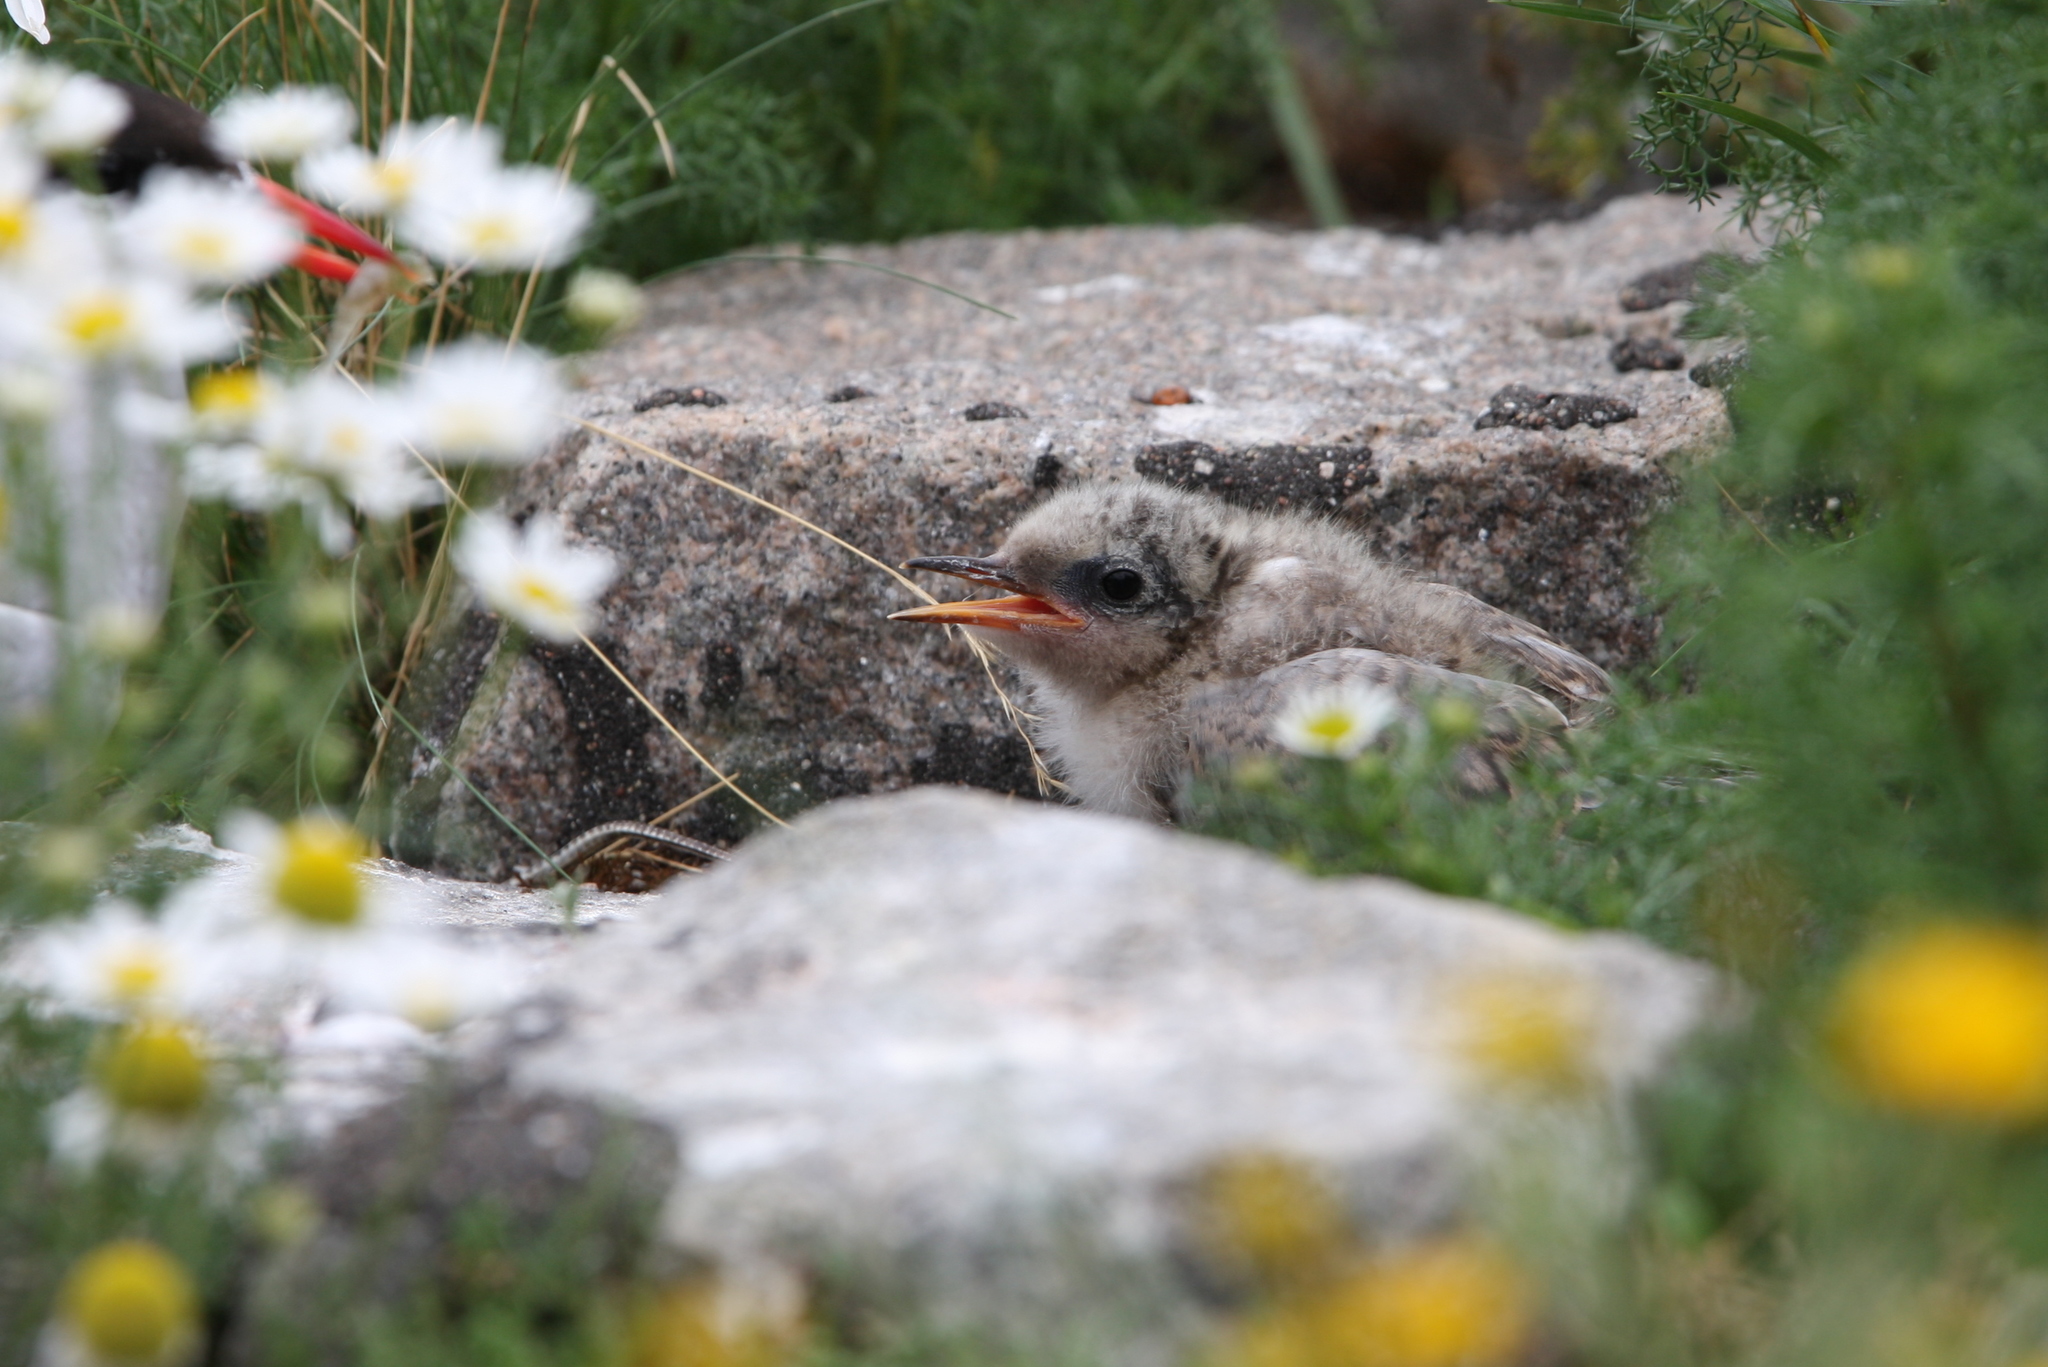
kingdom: Animalia
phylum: Chordata
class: Aves
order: Charadriiformes
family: Laridae
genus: Sterna
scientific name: Sterna paradisaea
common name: Arctic tern
